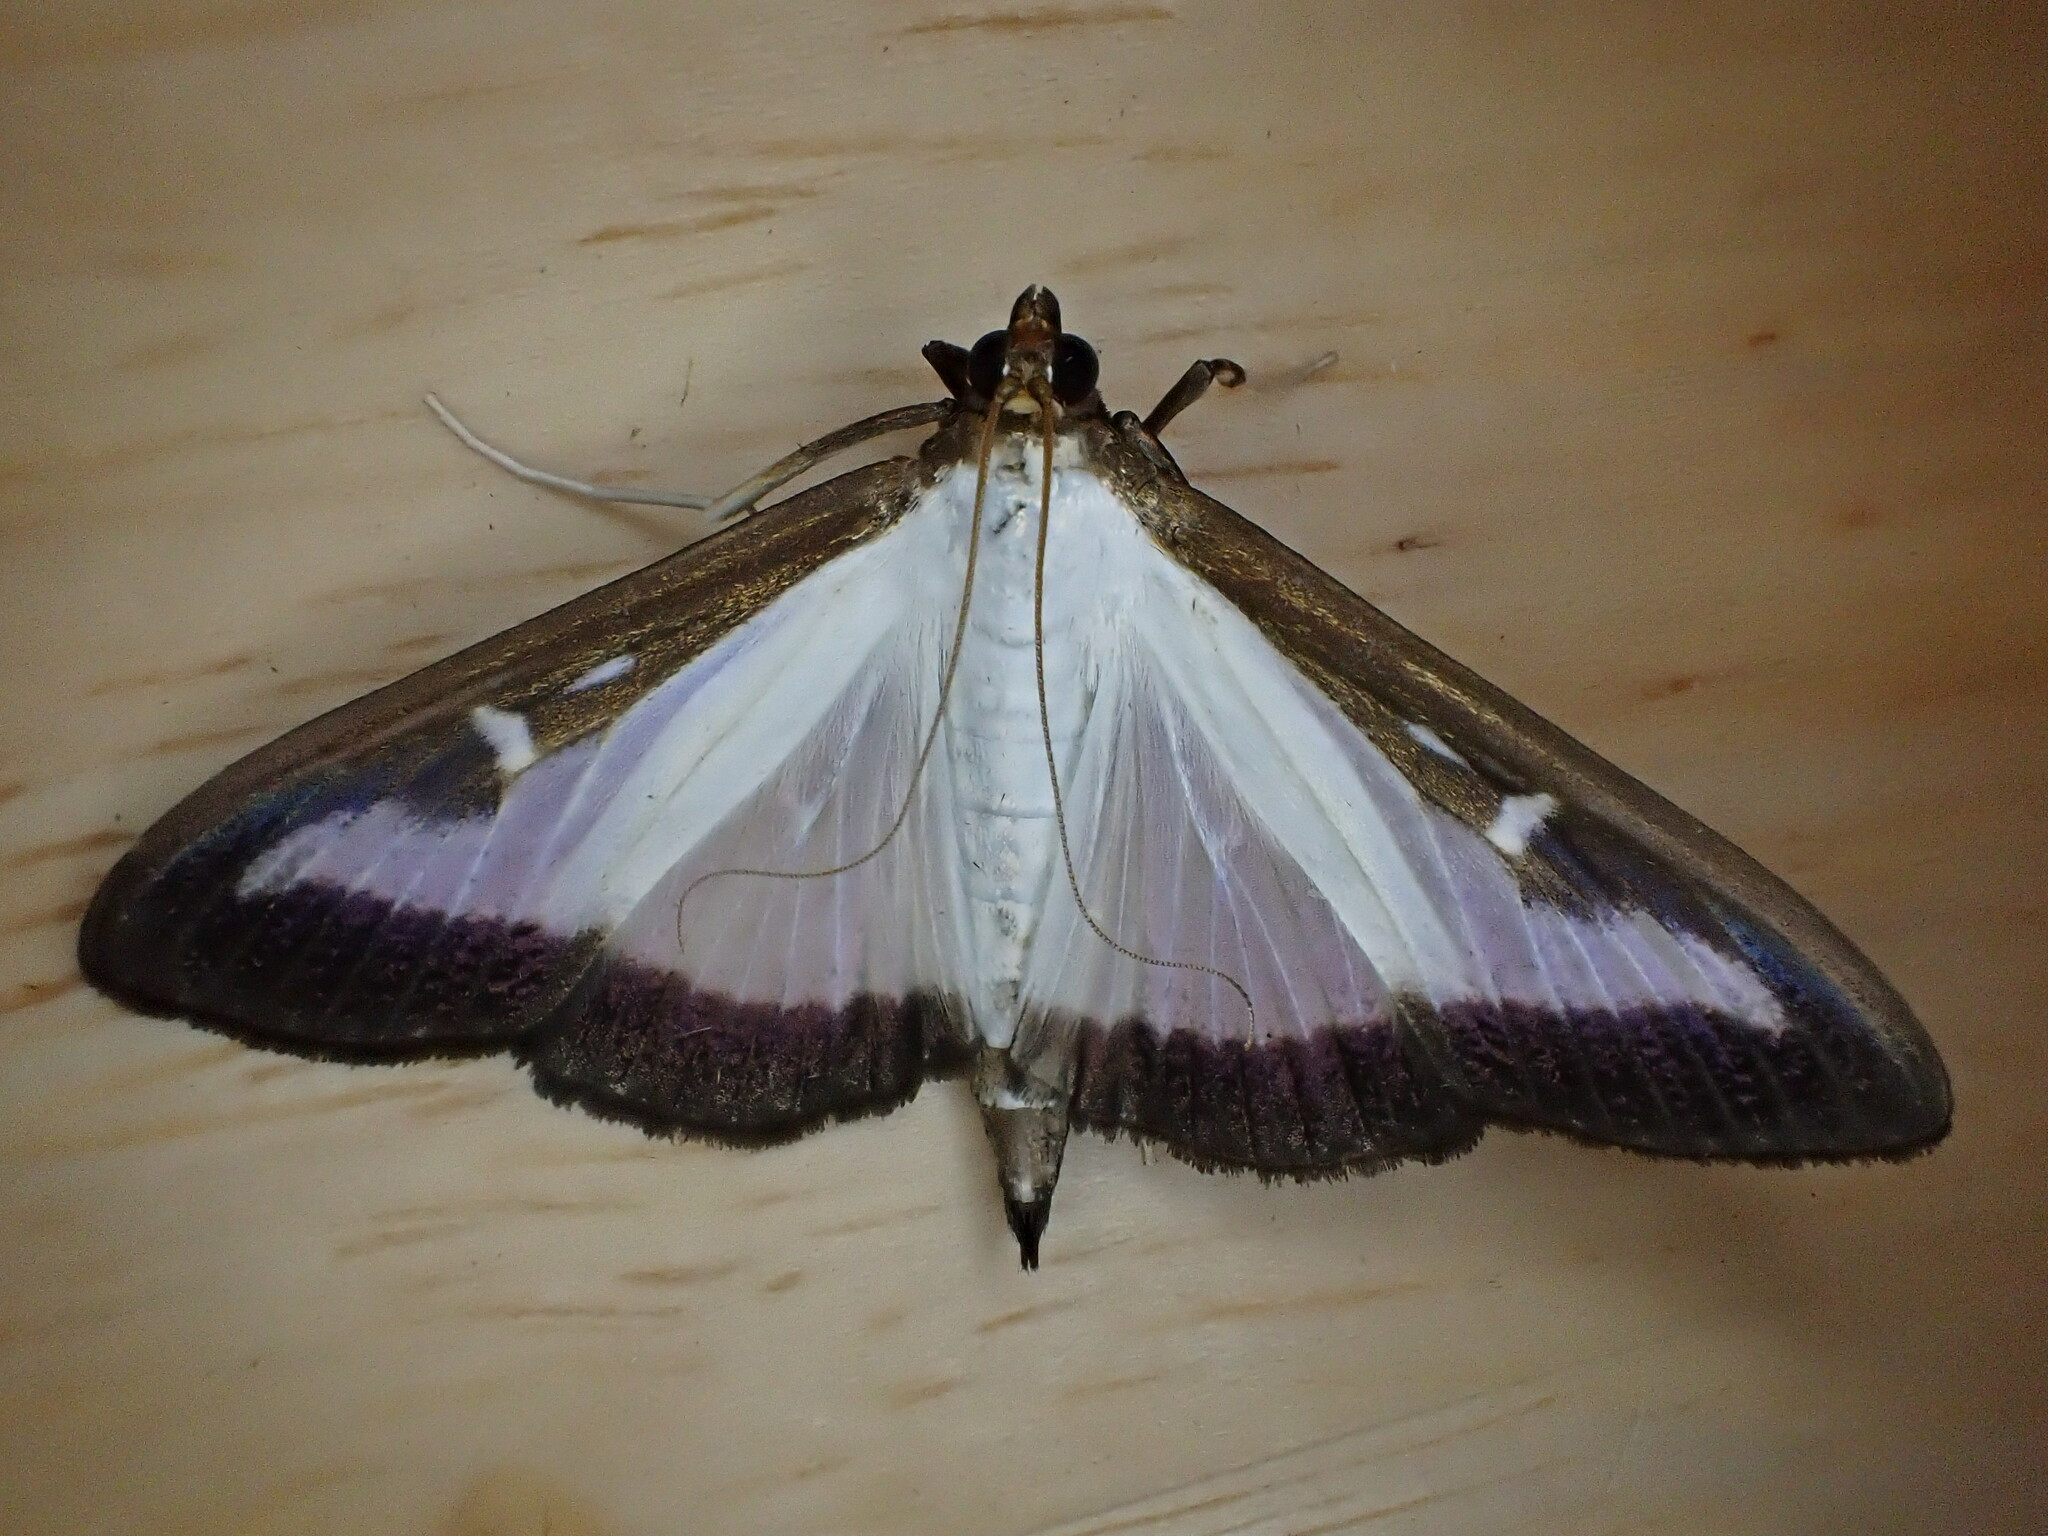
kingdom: Animalia
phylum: Arthropoda
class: Insecta
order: Lepidoptera
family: Crambidae
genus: Cydalima
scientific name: Cydalima perspectalis
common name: Box tree moth
